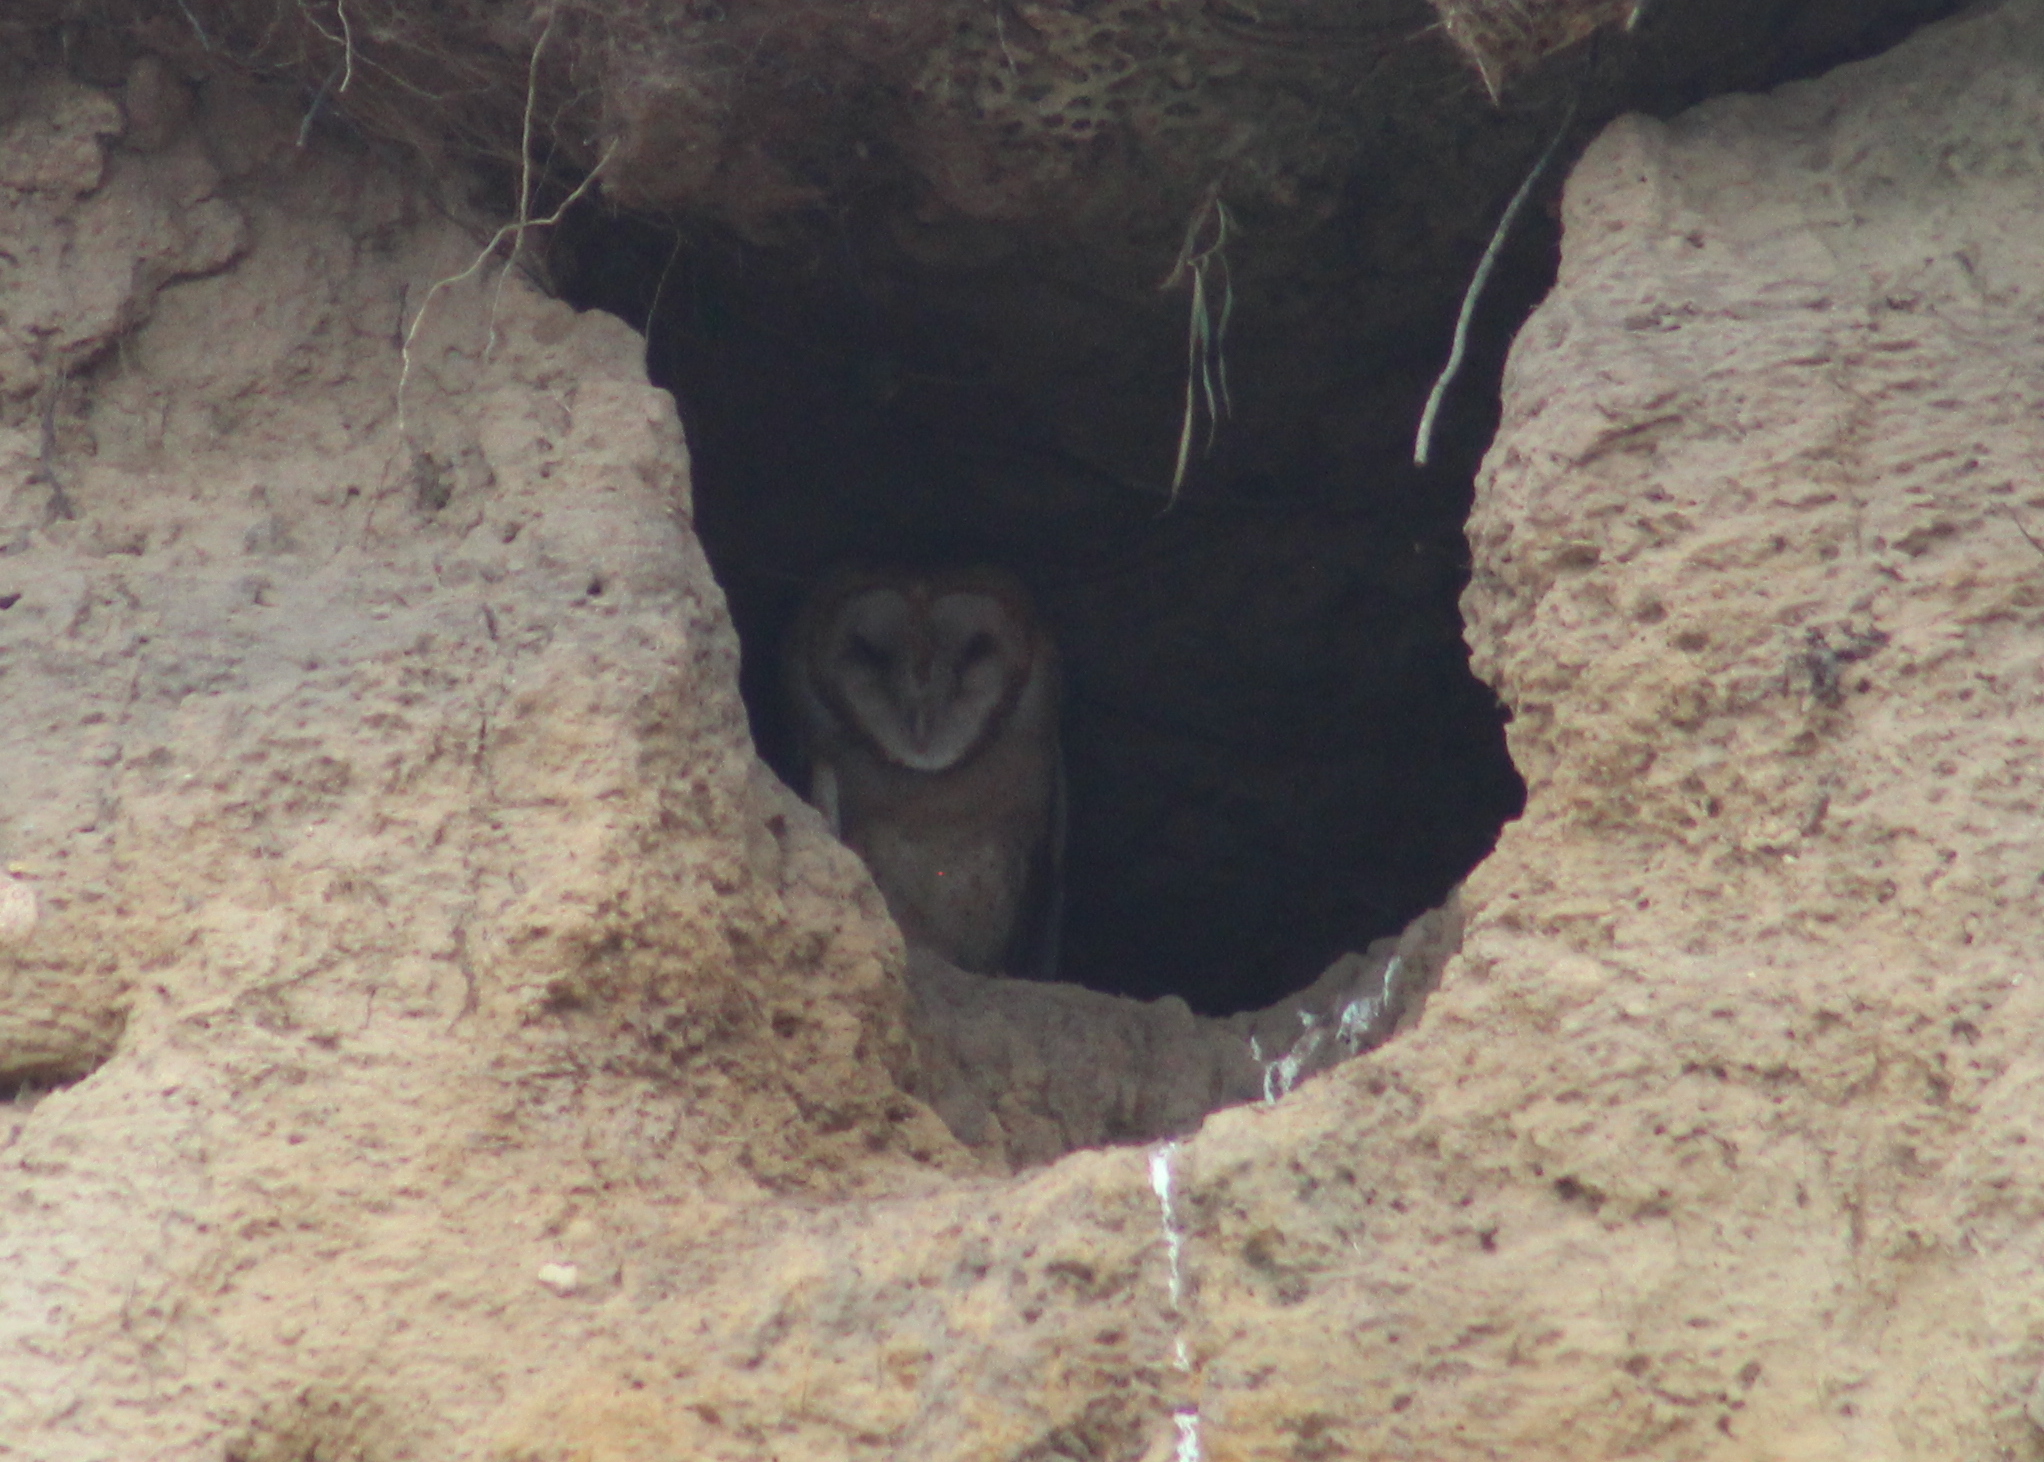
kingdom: Animalia
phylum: Chordata
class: Aves
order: Strigiformes
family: Tytonidae
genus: Tyto
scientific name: Tyto alba
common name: Barn owl
